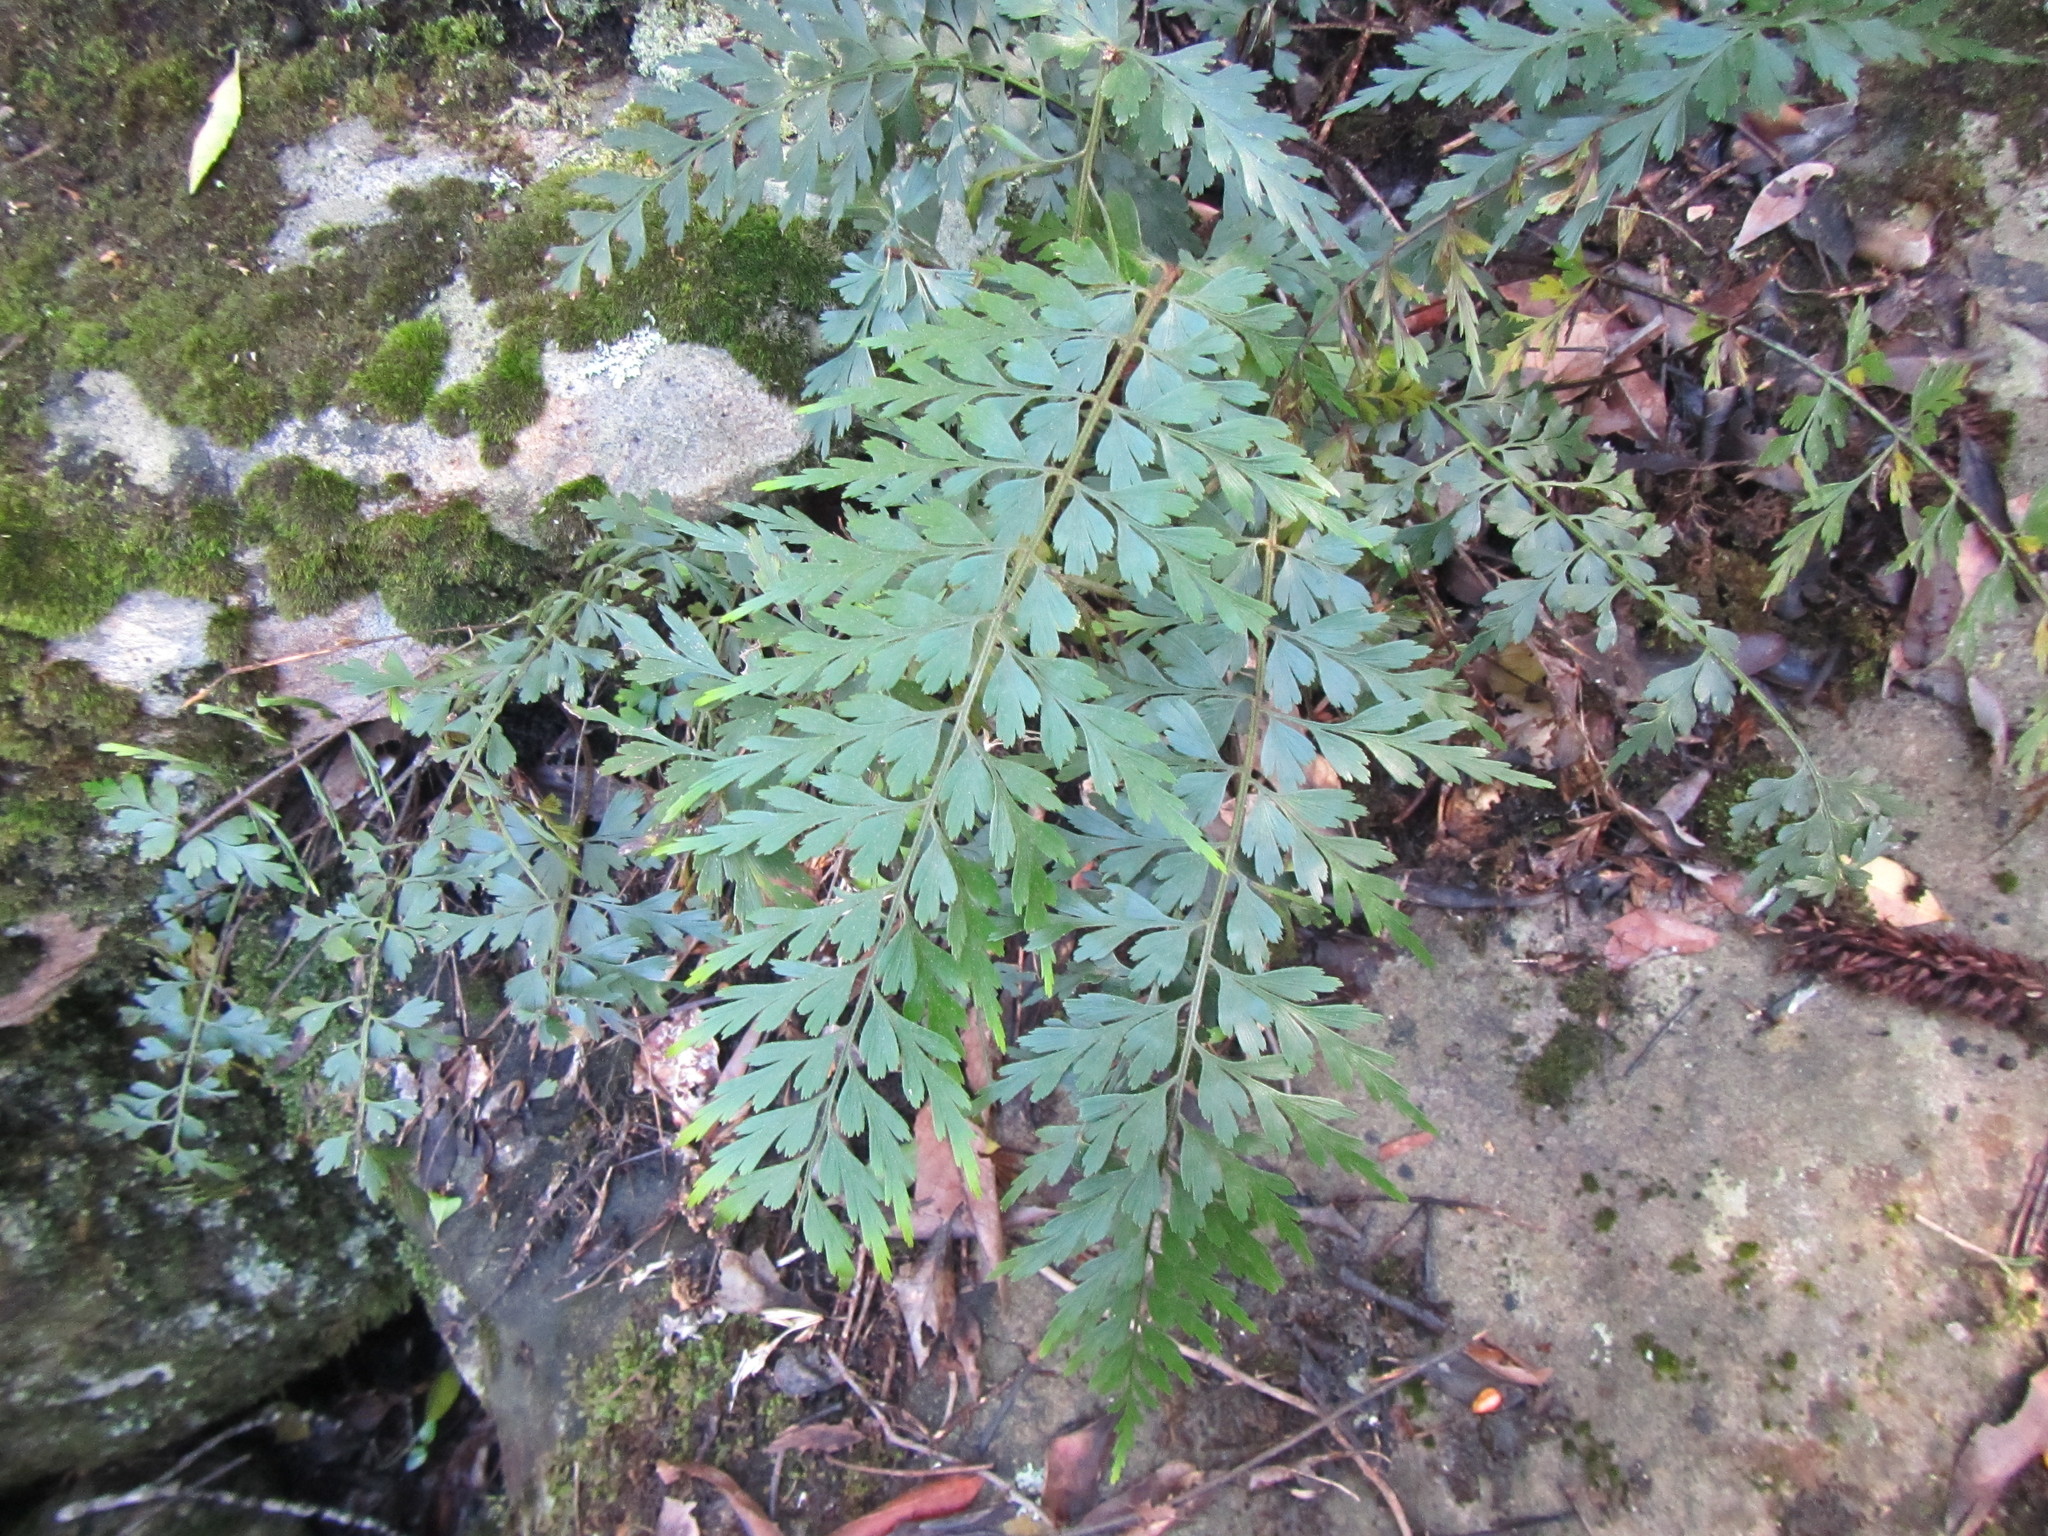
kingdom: Plantae
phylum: Tracheophyta
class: Polypodiopsida
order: Polypodiales
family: Aspleniaceae
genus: Asplenium
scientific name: Asplenium aethiopicum
